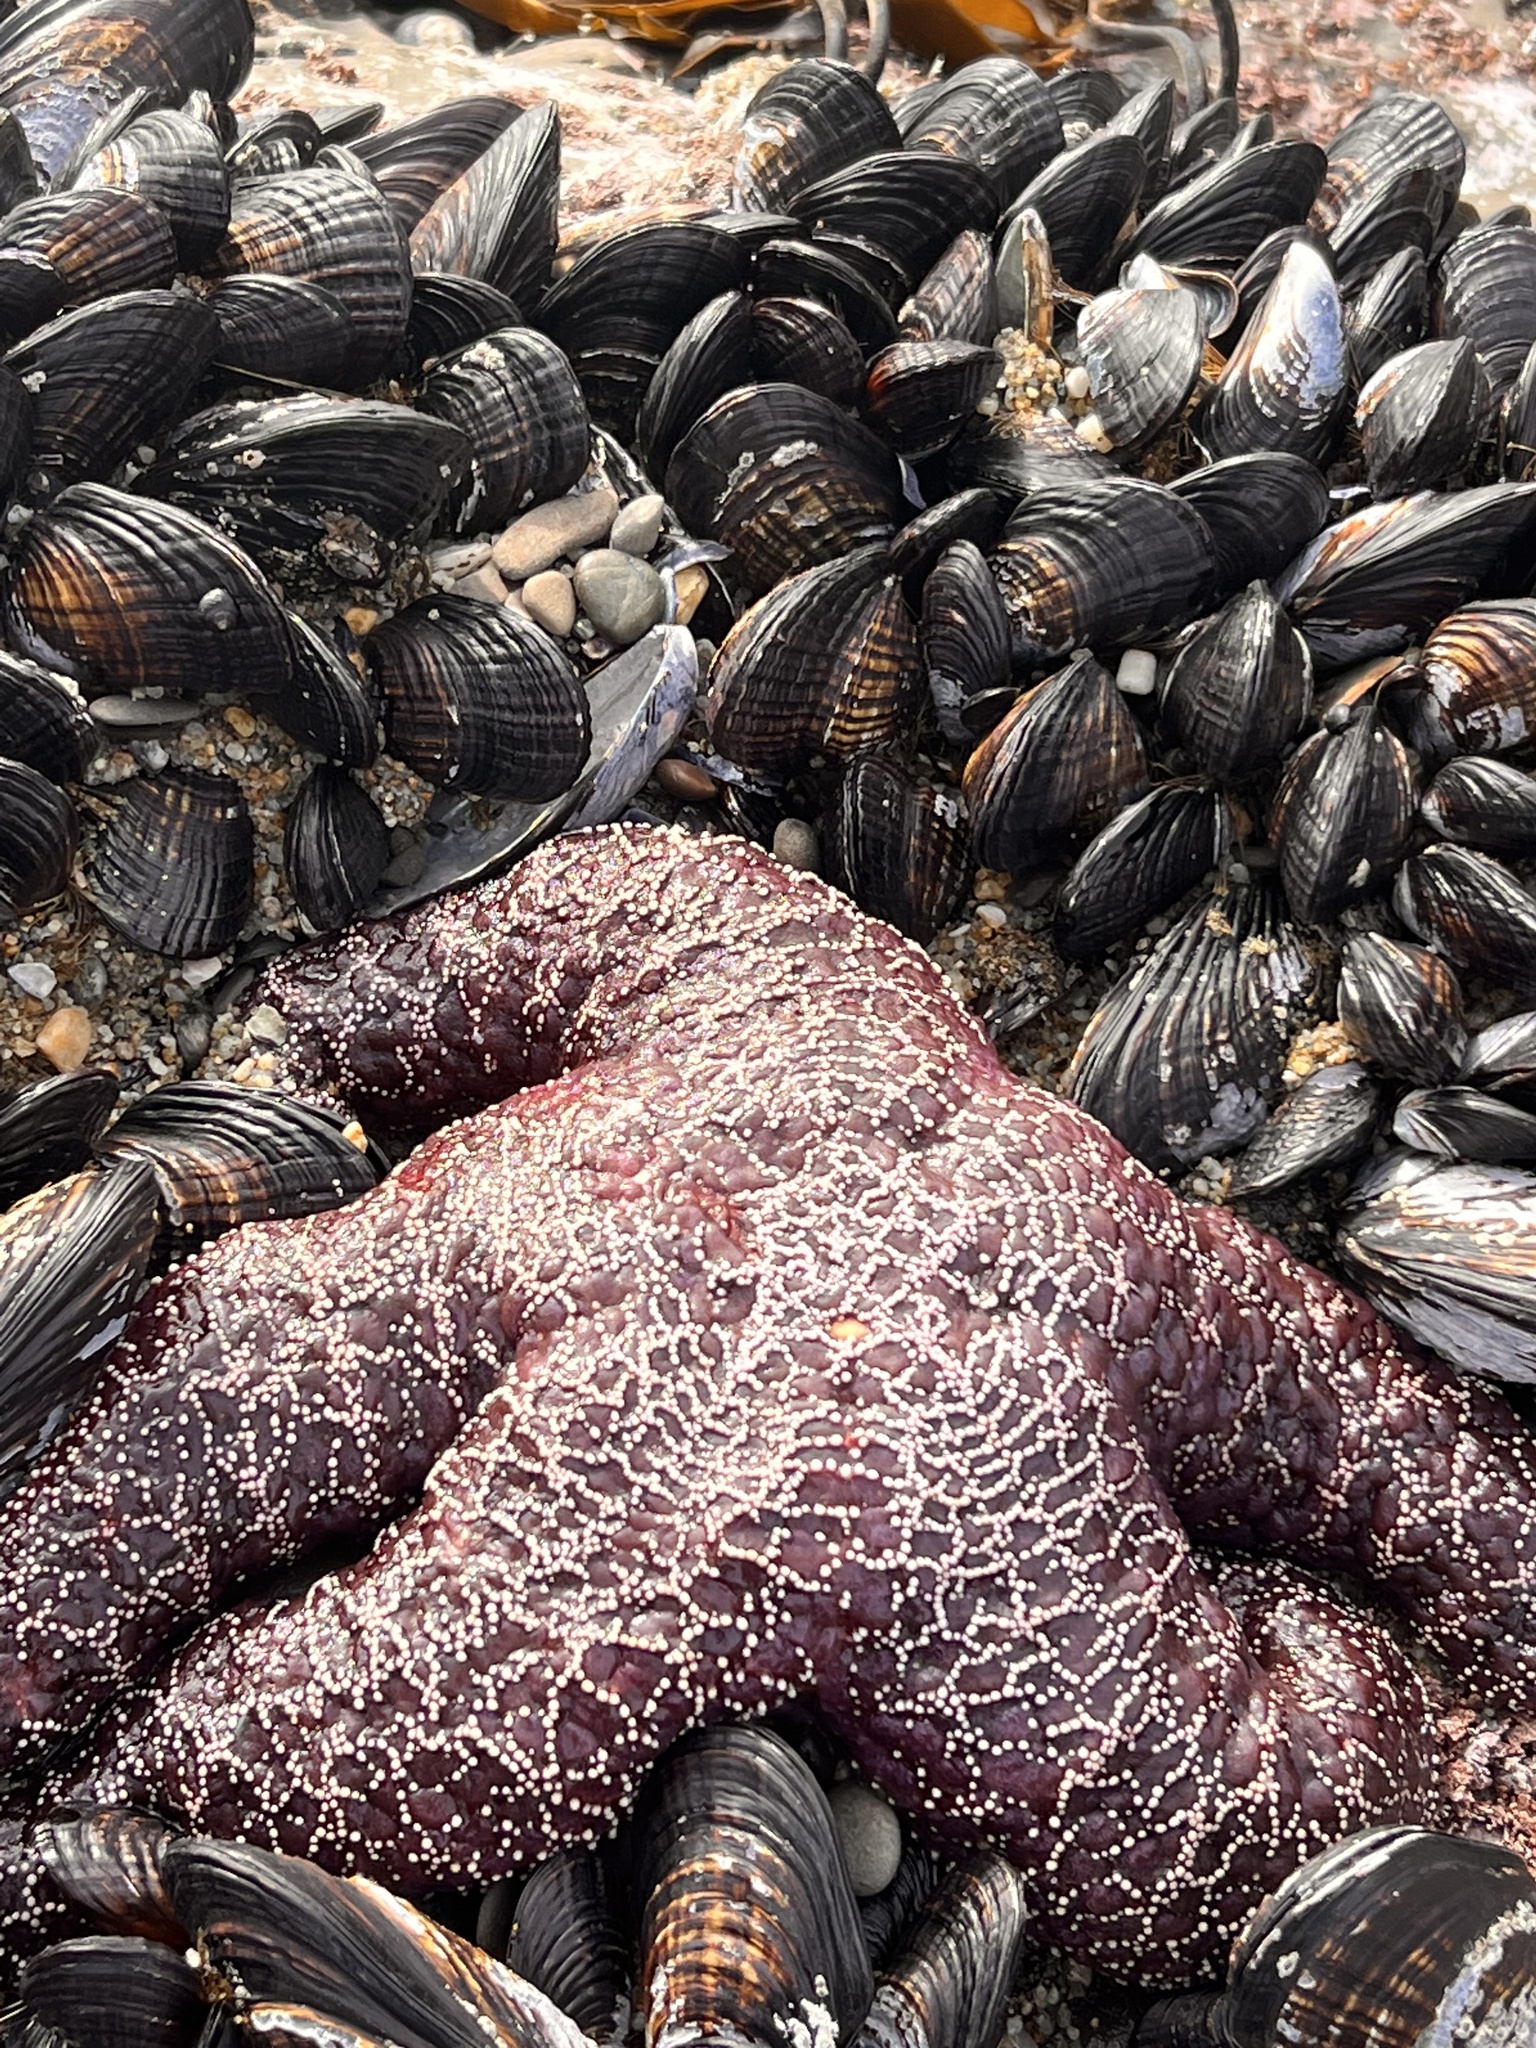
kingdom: Animalia
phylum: Echinodermata
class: Asteroidea
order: Forcipulatida
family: Asteriidae
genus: Pisaster
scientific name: Pisaster ochraceus
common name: Ochre stars
